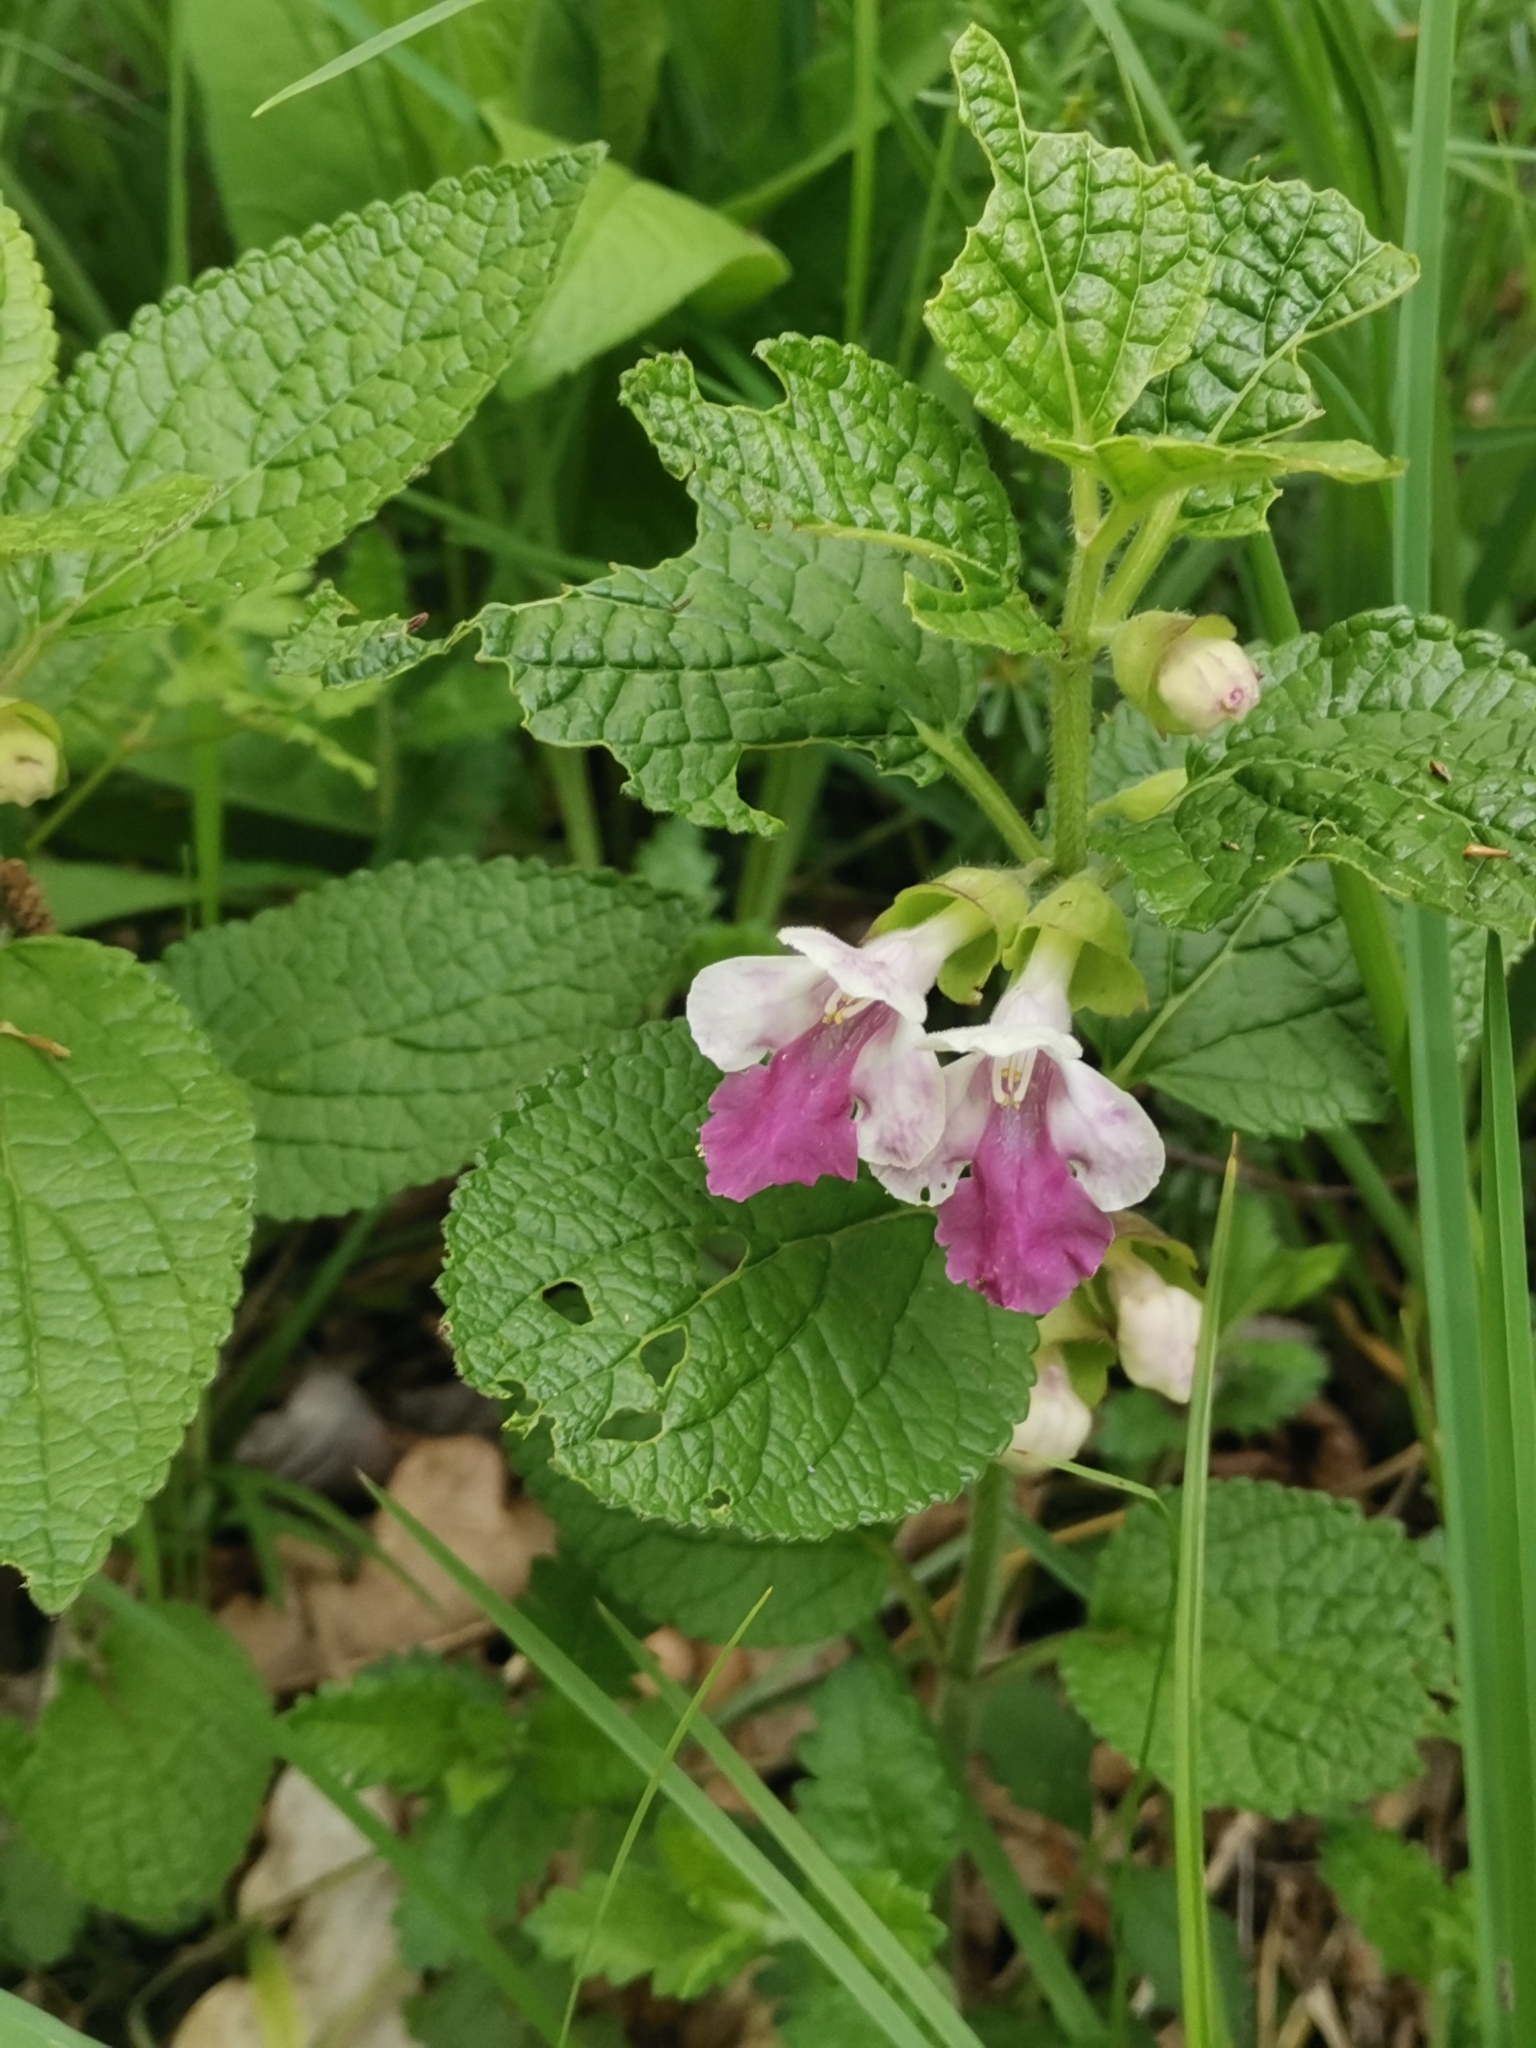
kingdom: Plantae
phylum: Tracheophyta
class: Magnoliopsida
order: Lamiales
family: Lamiaceae
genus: Melittis
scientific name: Melittis melissophyllum
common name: Bastard balm
